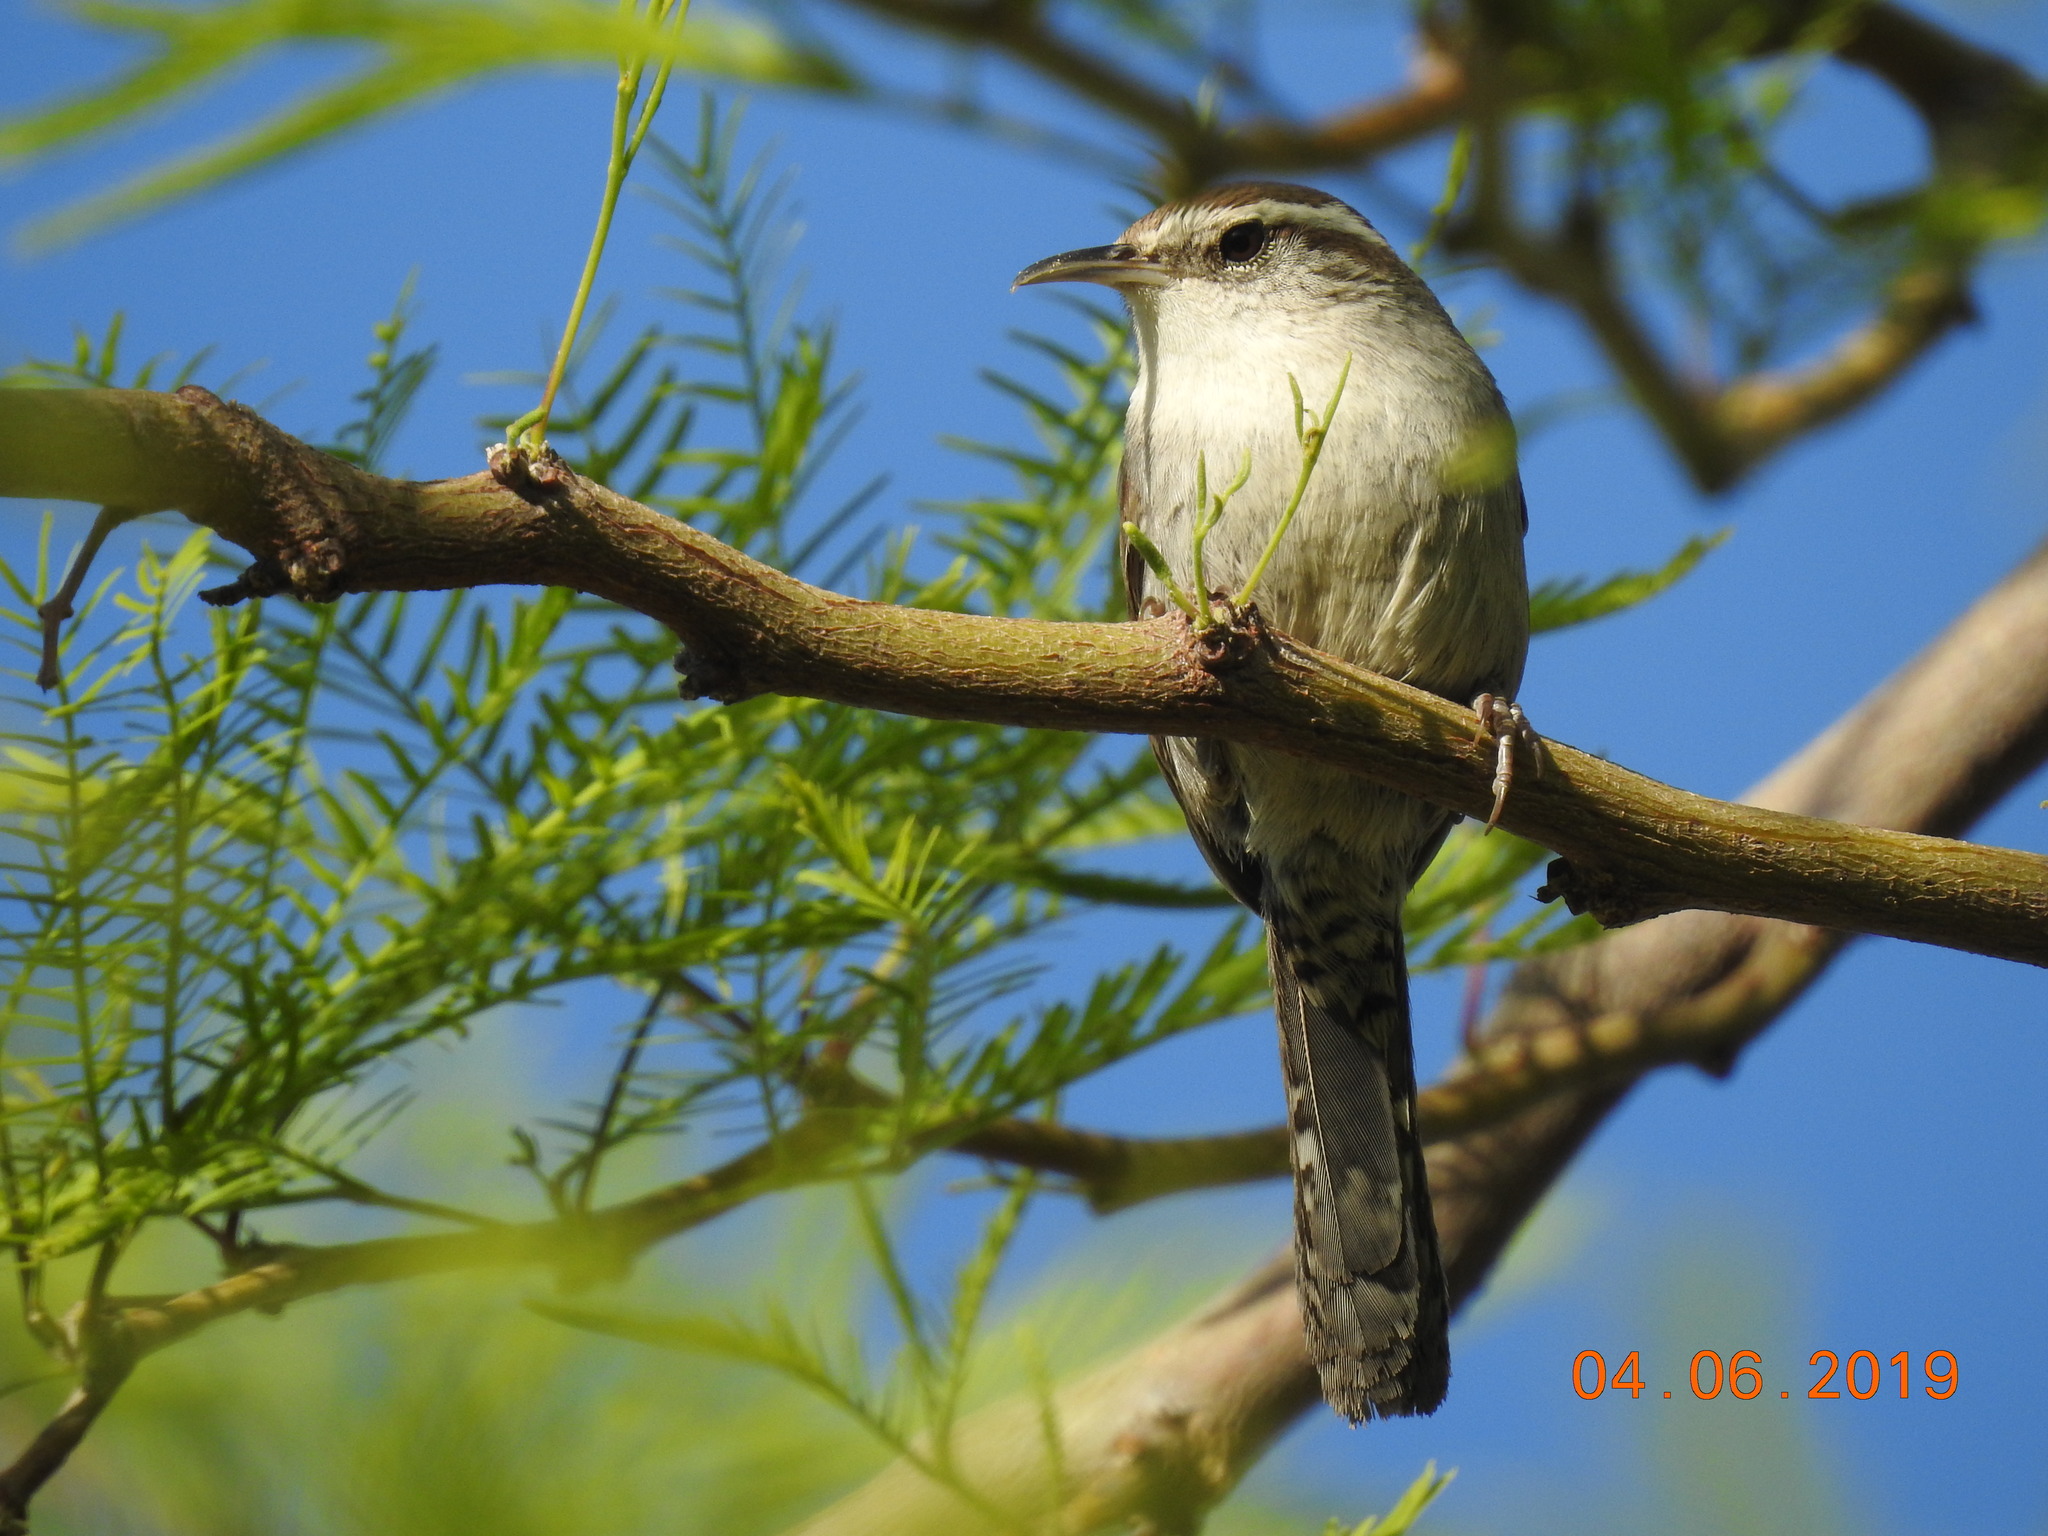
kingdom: Animalia
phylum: Chordata
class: Aves
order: Passeriformes
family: Troglodytidae
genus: Thryomanes
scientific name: Thryomanes bewickii
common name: Bewick's wren
